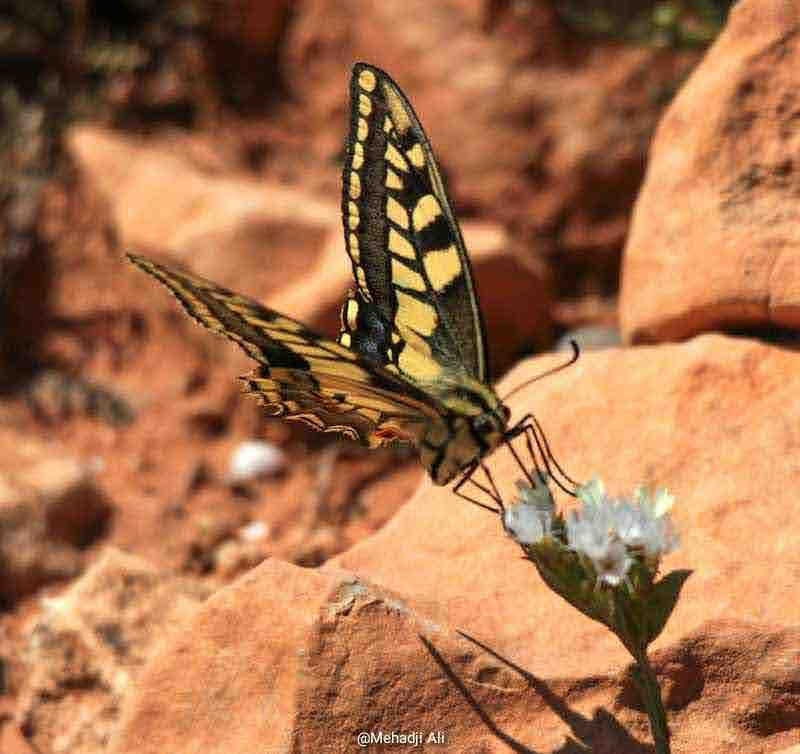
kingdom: Animalia
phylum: Arthropoda
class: Insecta
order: Lepidoptera
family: Papilionidae
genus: Papilio
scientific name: Papilio machaon
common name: Swallowtail
